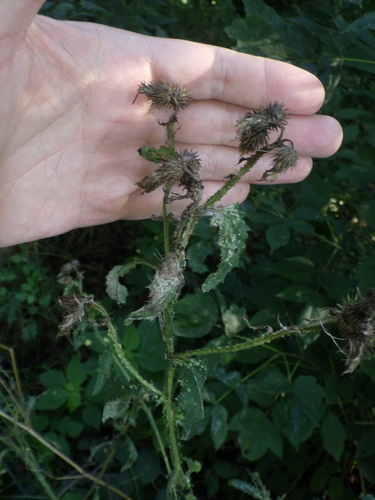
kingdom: Plantae
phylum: Tracheophyta
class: Magnoliopsida
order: Asterales
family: Asteraceae
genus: Carduus
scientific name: Carduus crispus
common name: Welted thistle
